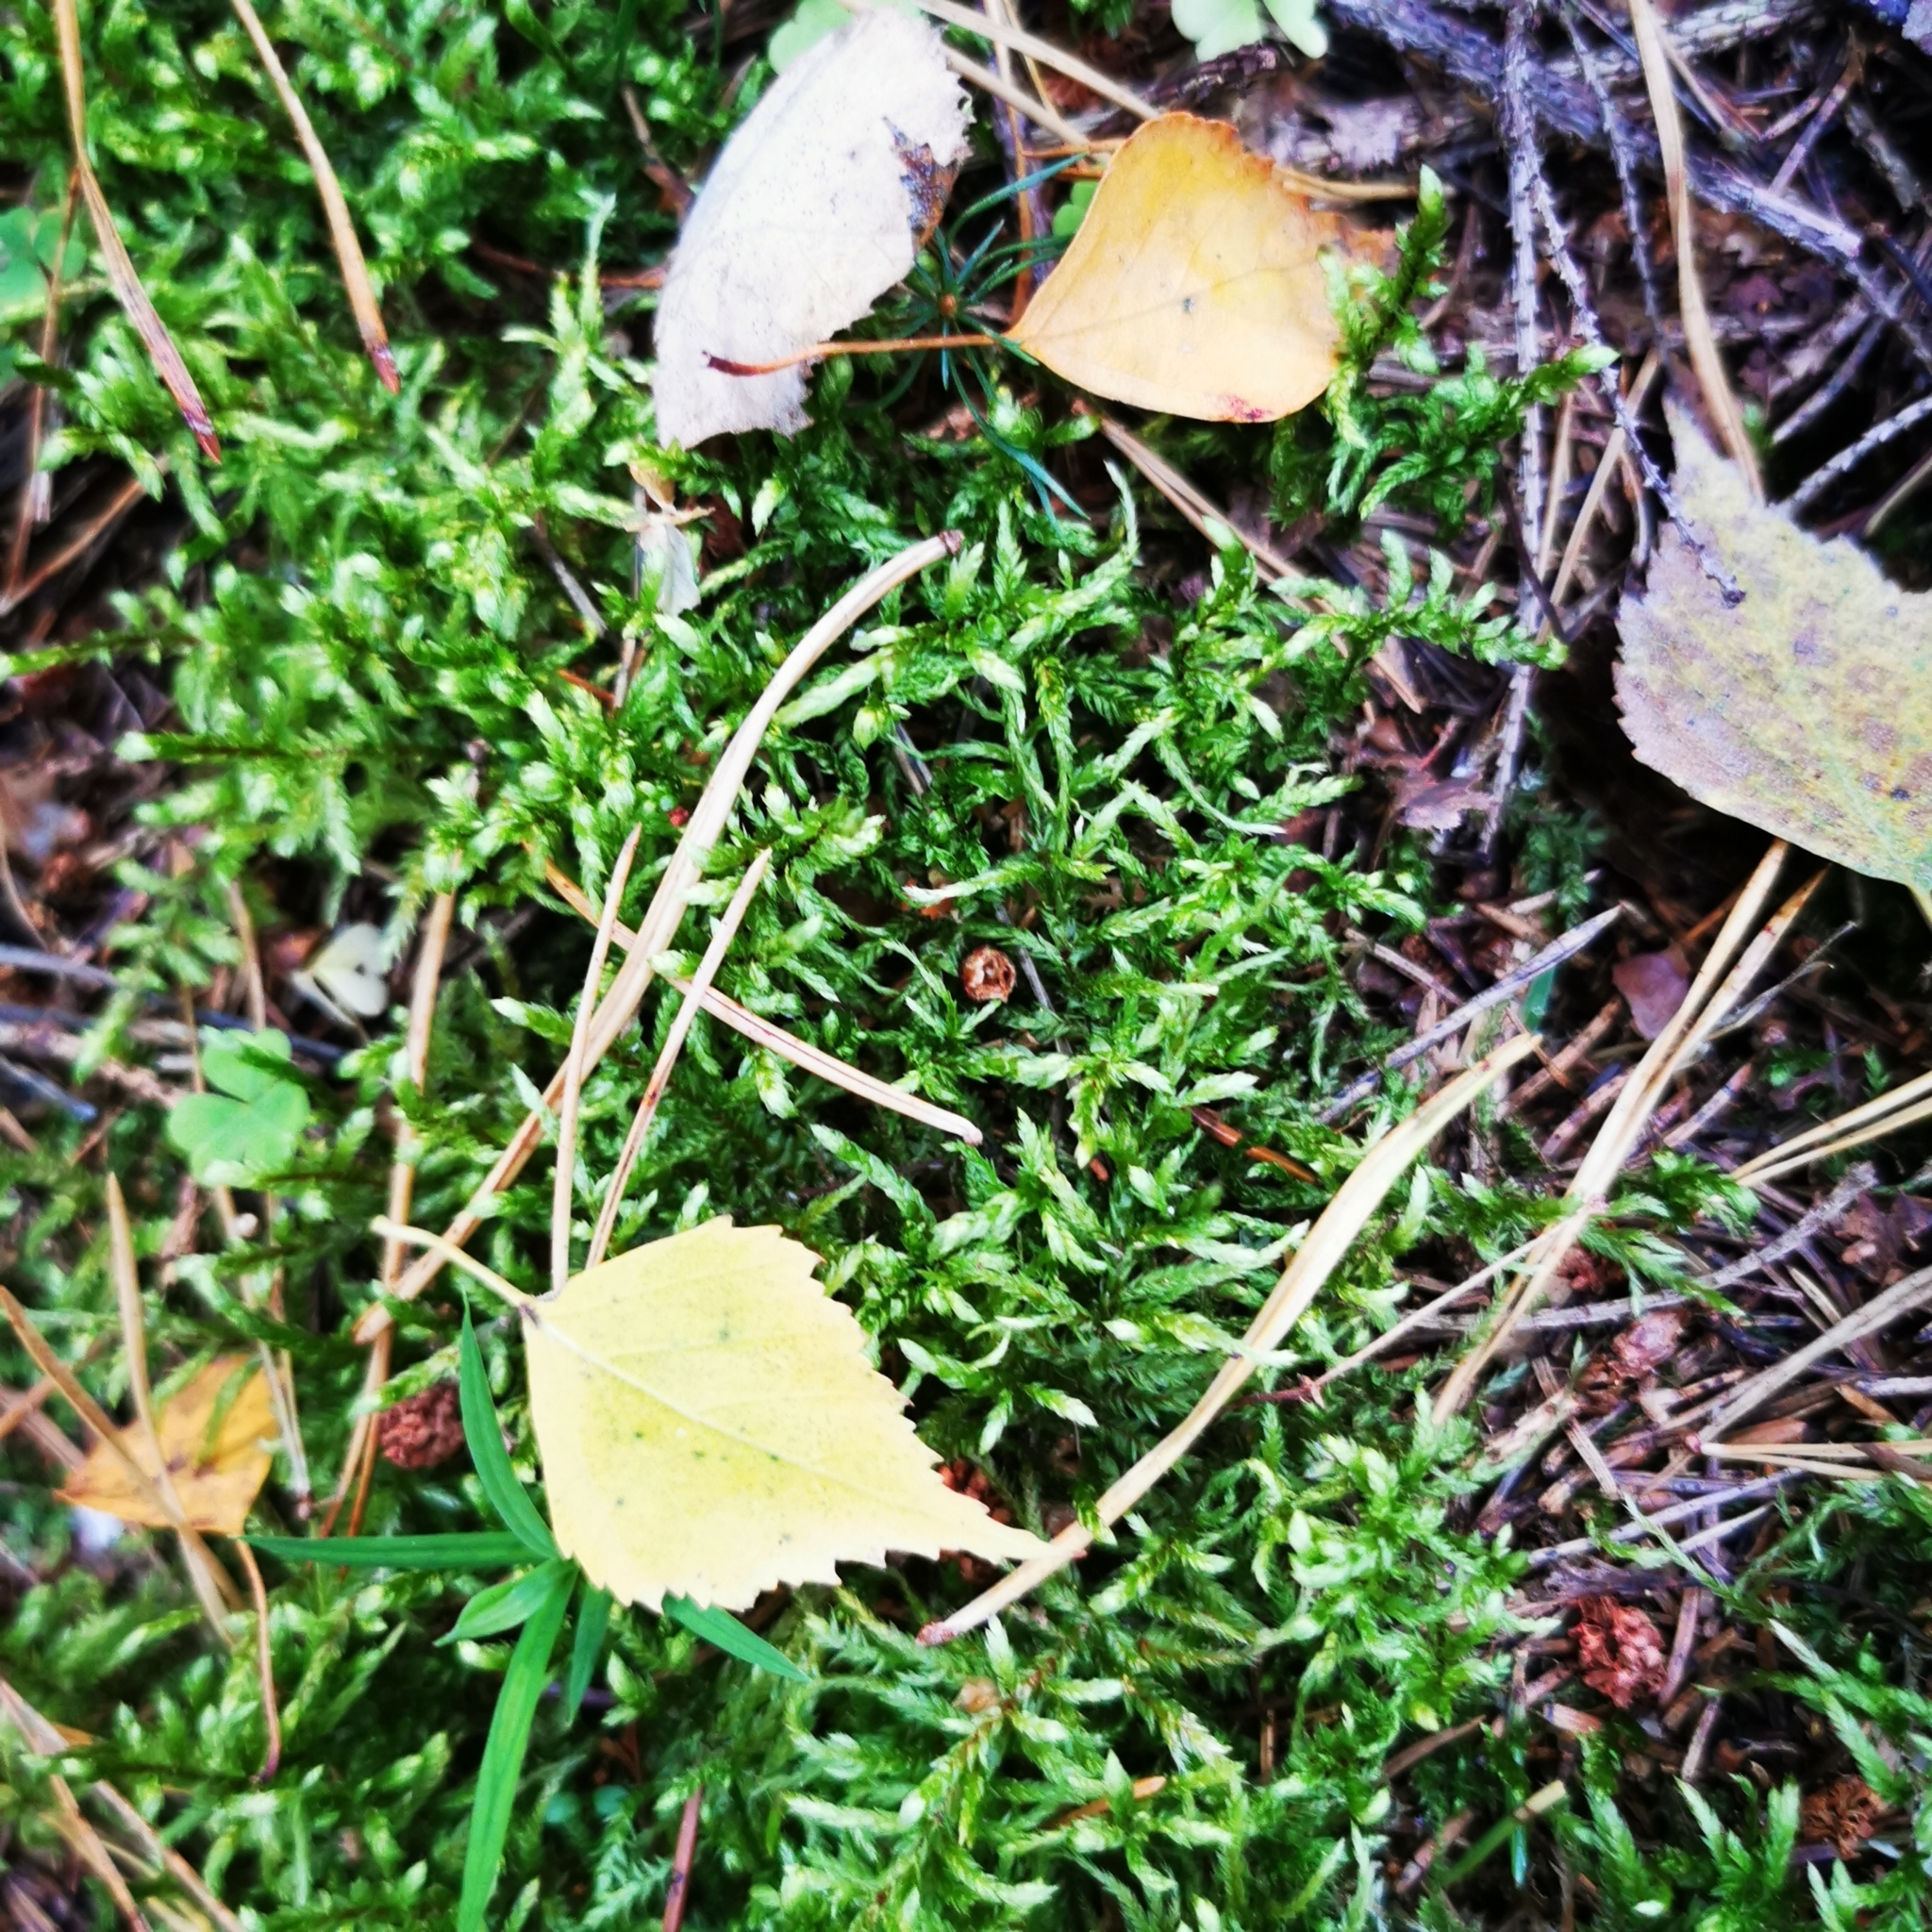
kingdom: Plantae
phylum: Bryophyta
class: Bryopsida
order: Hypnales
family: Hylocomiaceae
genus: Pleurozium
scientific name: Pleurozium schreberi
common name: Red-stemmed feather moss
